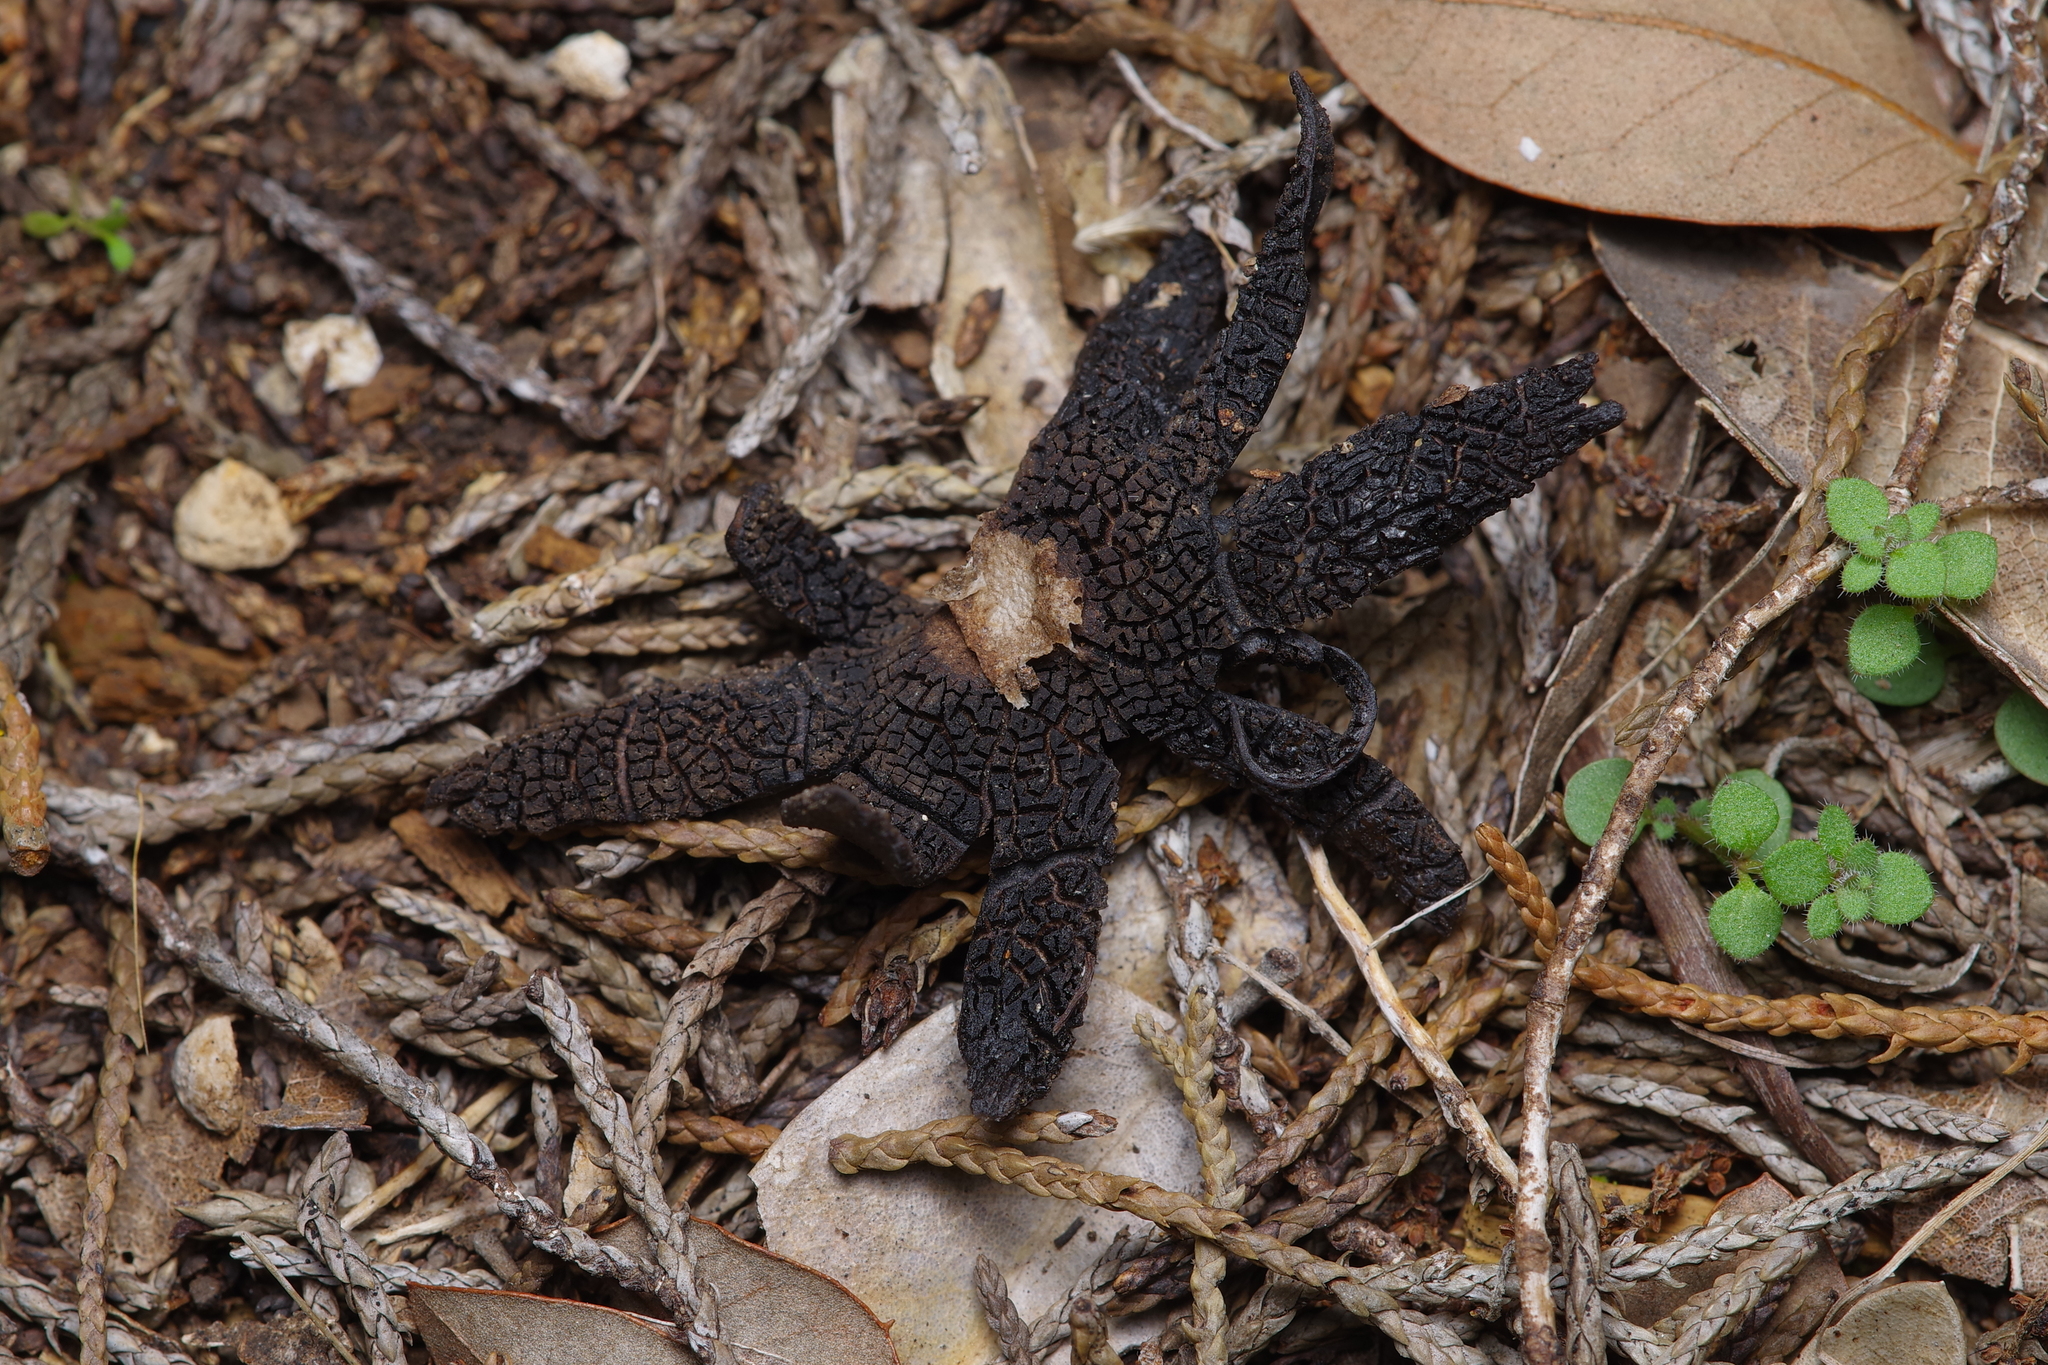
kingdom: Fungi
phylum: Basidiomycota
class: Agaricomycetes
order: Boletales
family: Diplocystidiaceae
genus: Astraeus
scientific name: Astraeus morganii
